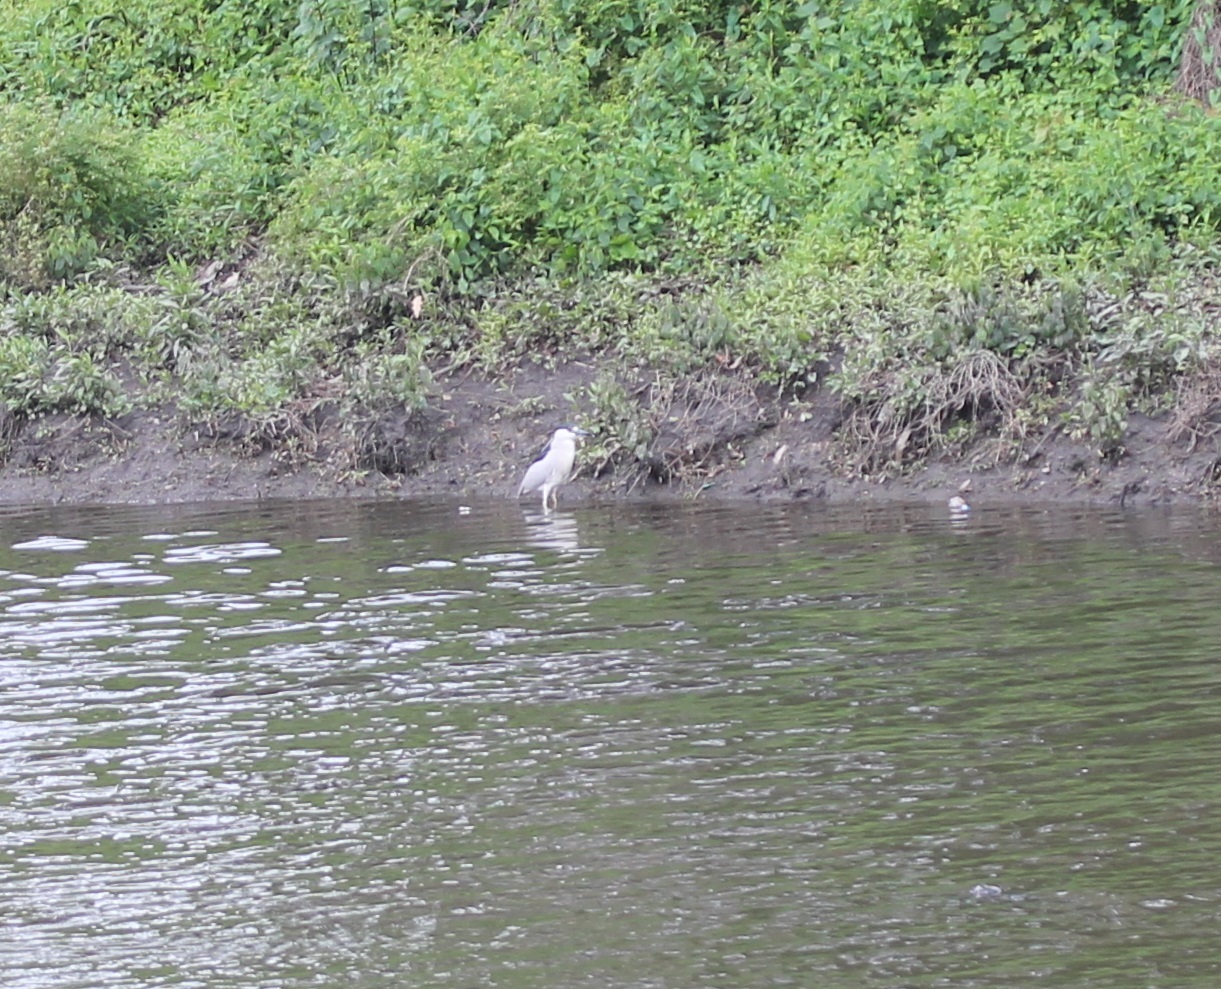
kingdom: Animalia
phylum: Chordata
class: Aves
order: Pelecaniformes
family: Ardeidae
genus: Nycticorax
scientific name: Nycticorax nycticorax
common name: Black-crowned night heron
